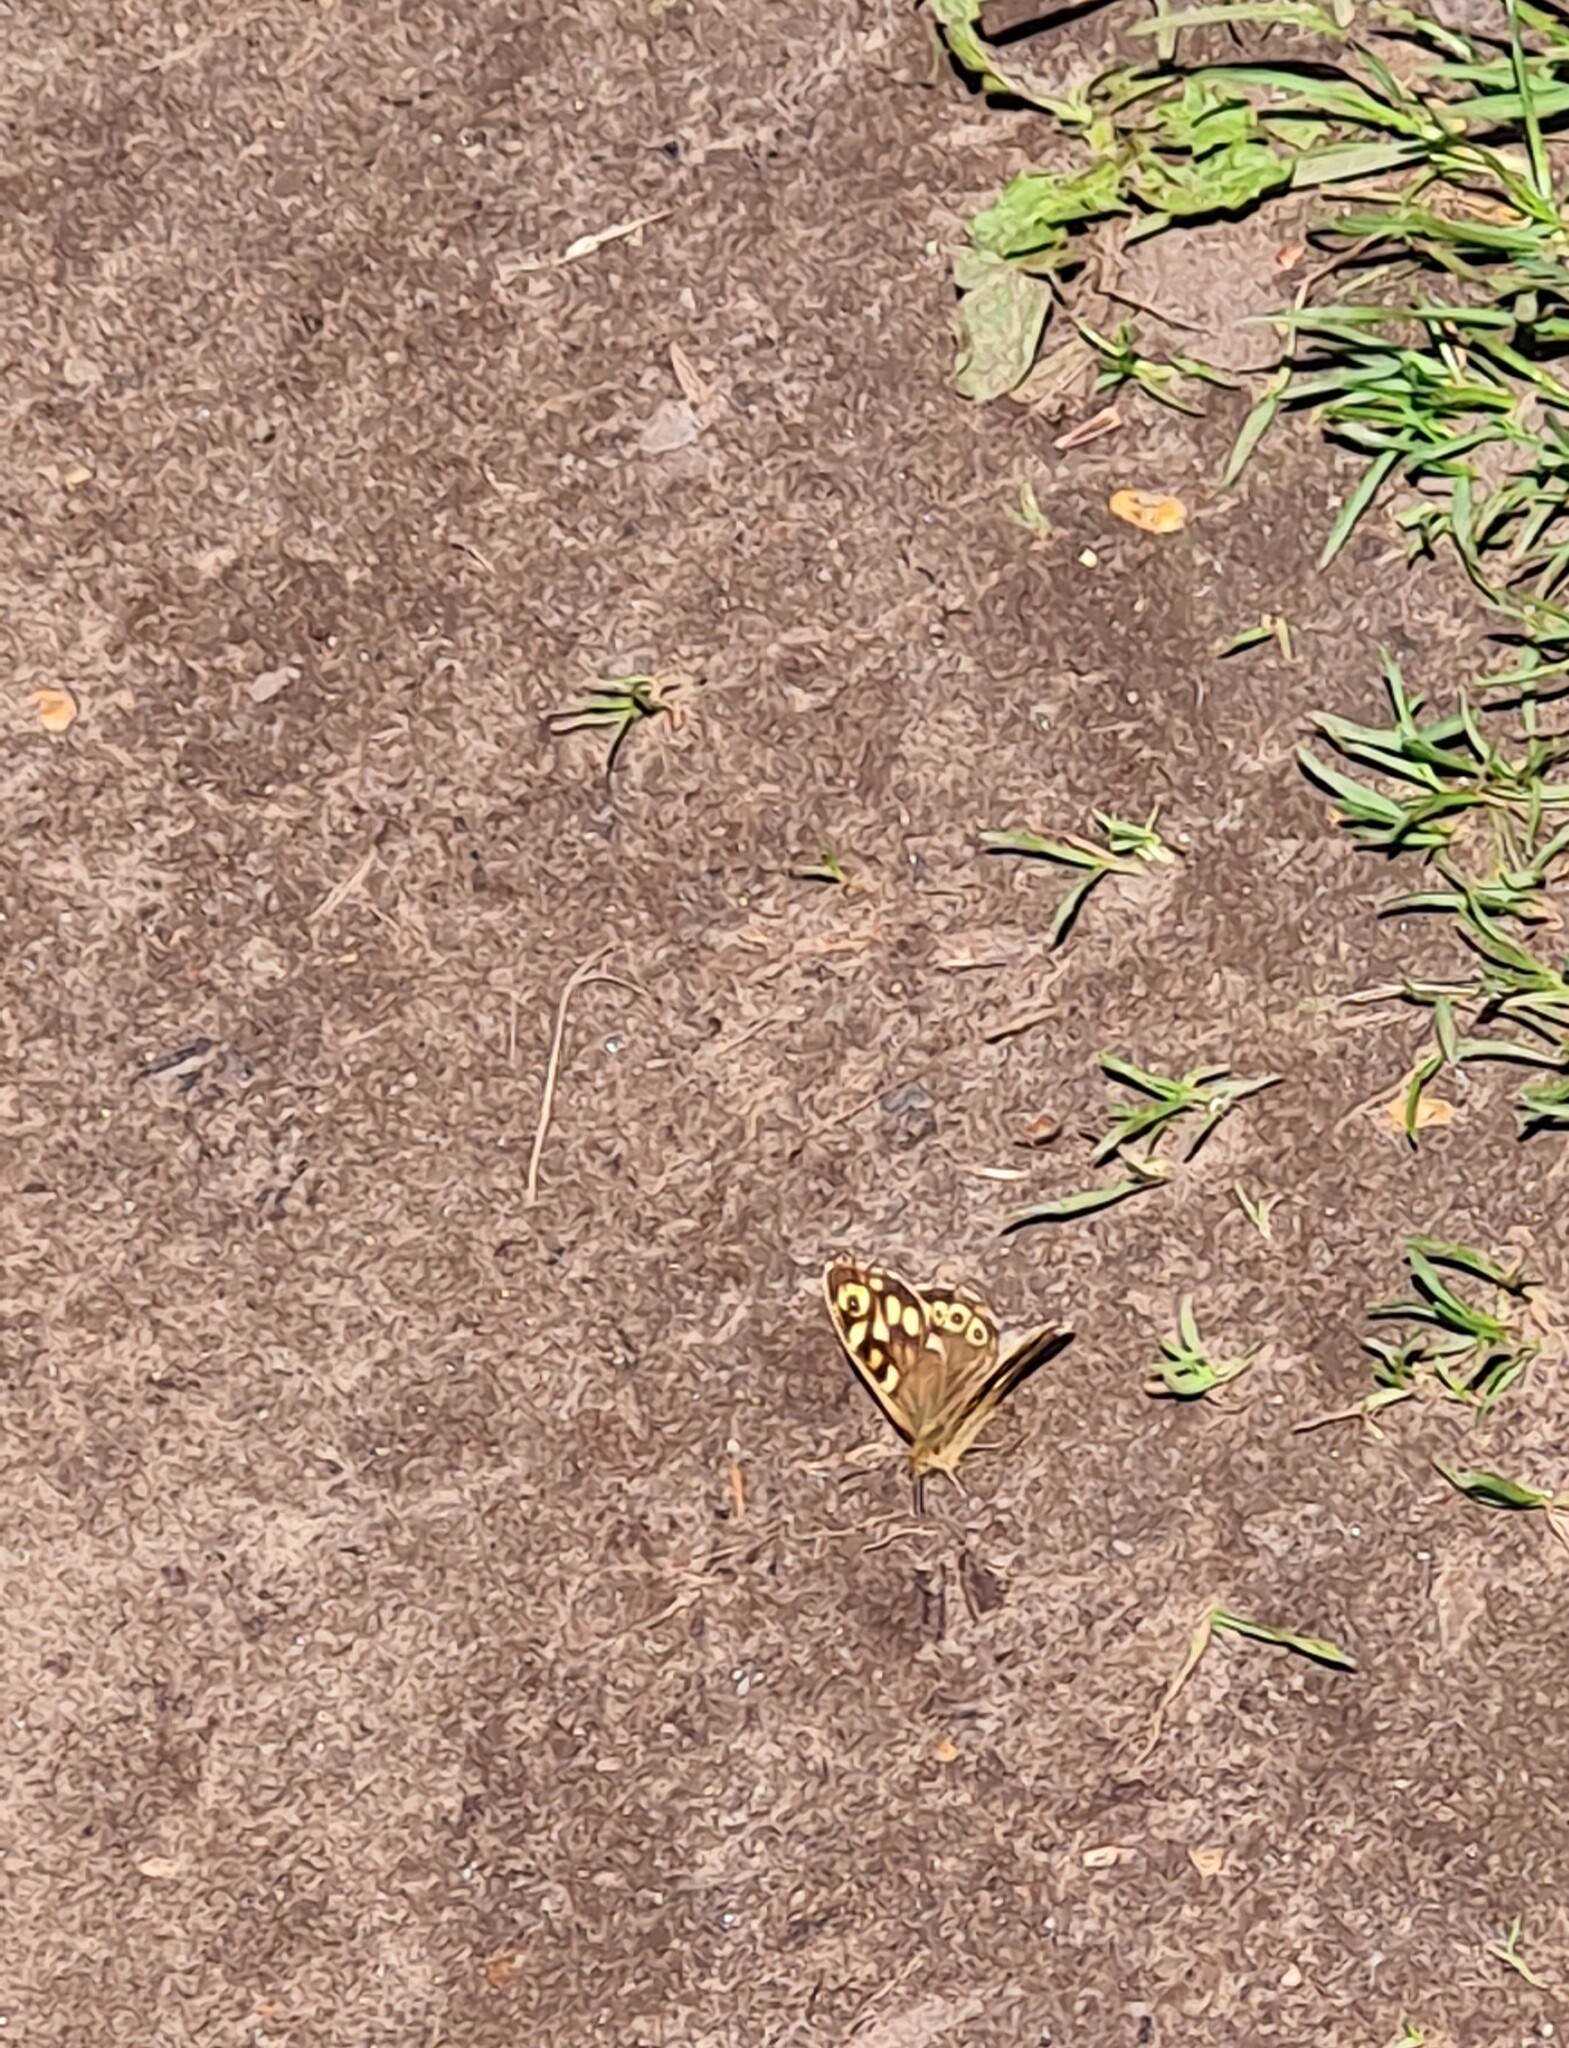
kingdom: Animalia
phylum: Arthropoda
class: Insecta
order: Lepidoptera
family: Nymphalidae
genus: Pararge
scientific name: Pararge aegeria
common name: Speckled wood
